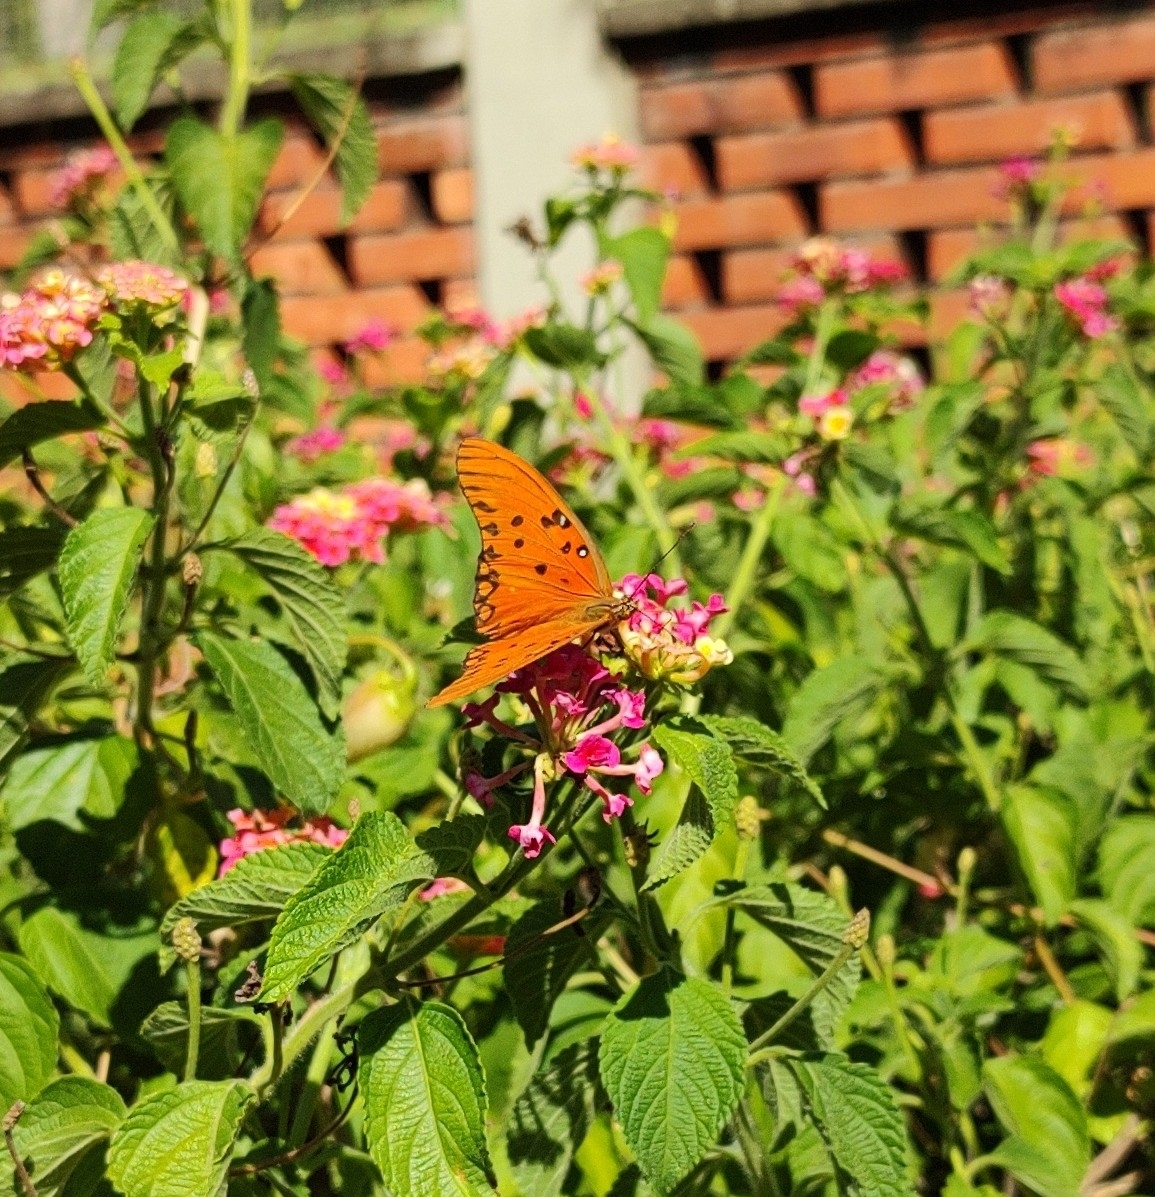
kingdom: Animalia
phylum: Arthropoda
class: Insecta
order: Lepidoptera
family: Nymphalidae
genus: Dione
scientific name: Dione vanillae
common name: Gulf fritillary
